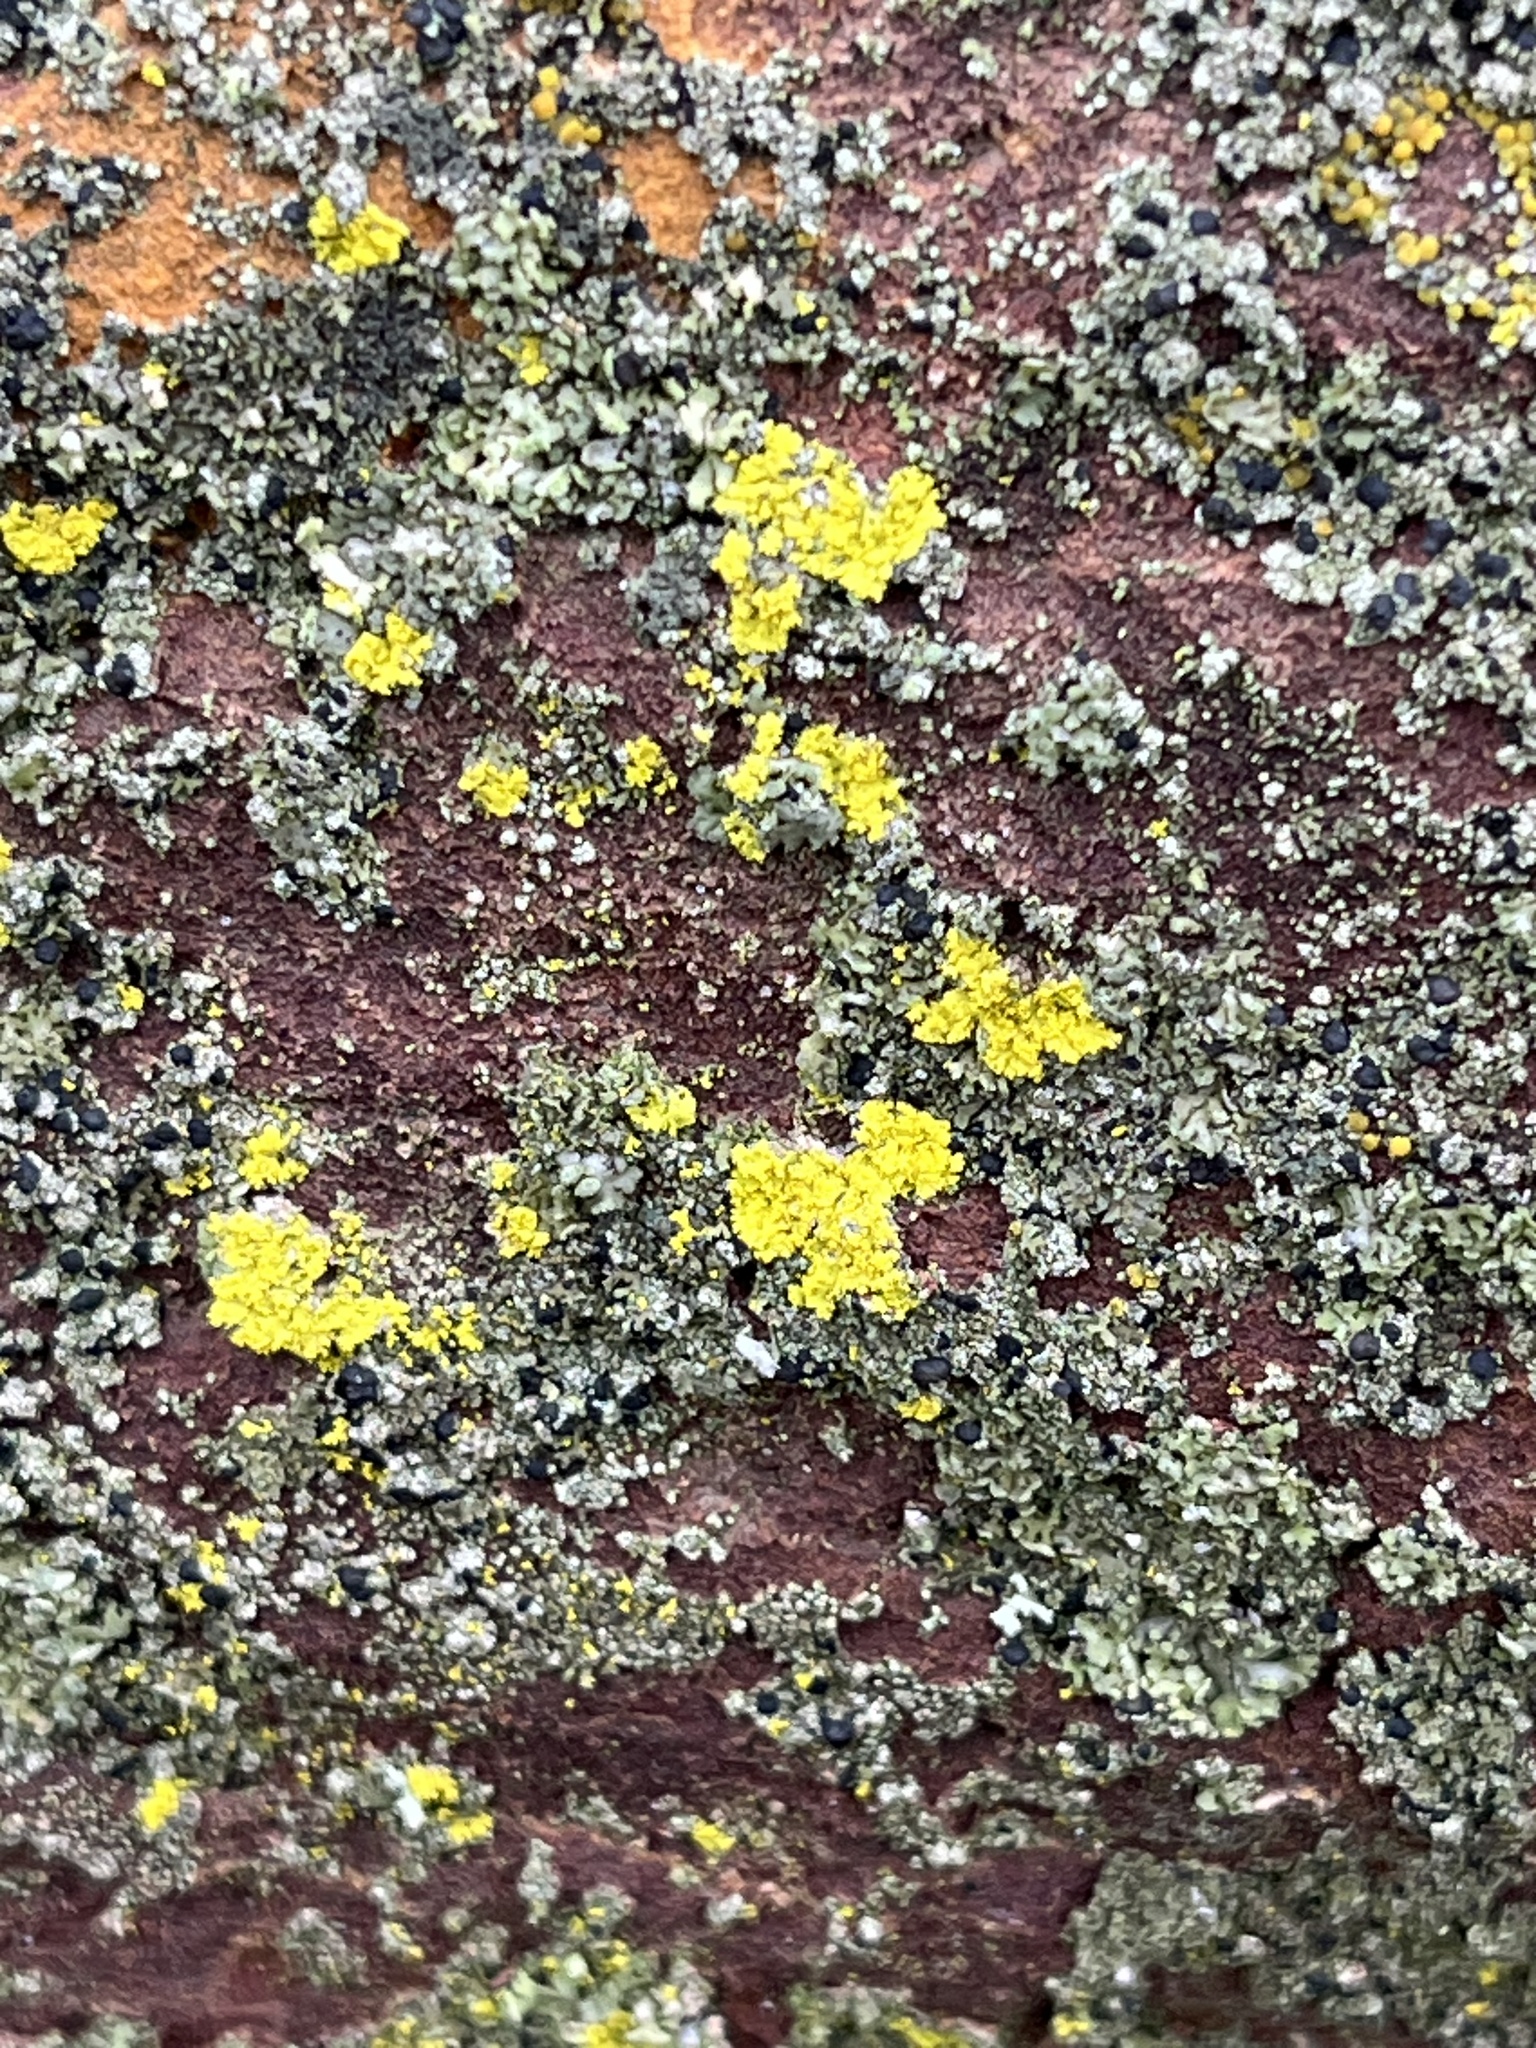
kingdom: Fungi
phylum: Ascomycota
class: Candelariomycetes
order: Candelariales
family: Candelariaceae
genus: Candelaria
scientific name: Candelaria concolor
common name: Candleflame lichen
